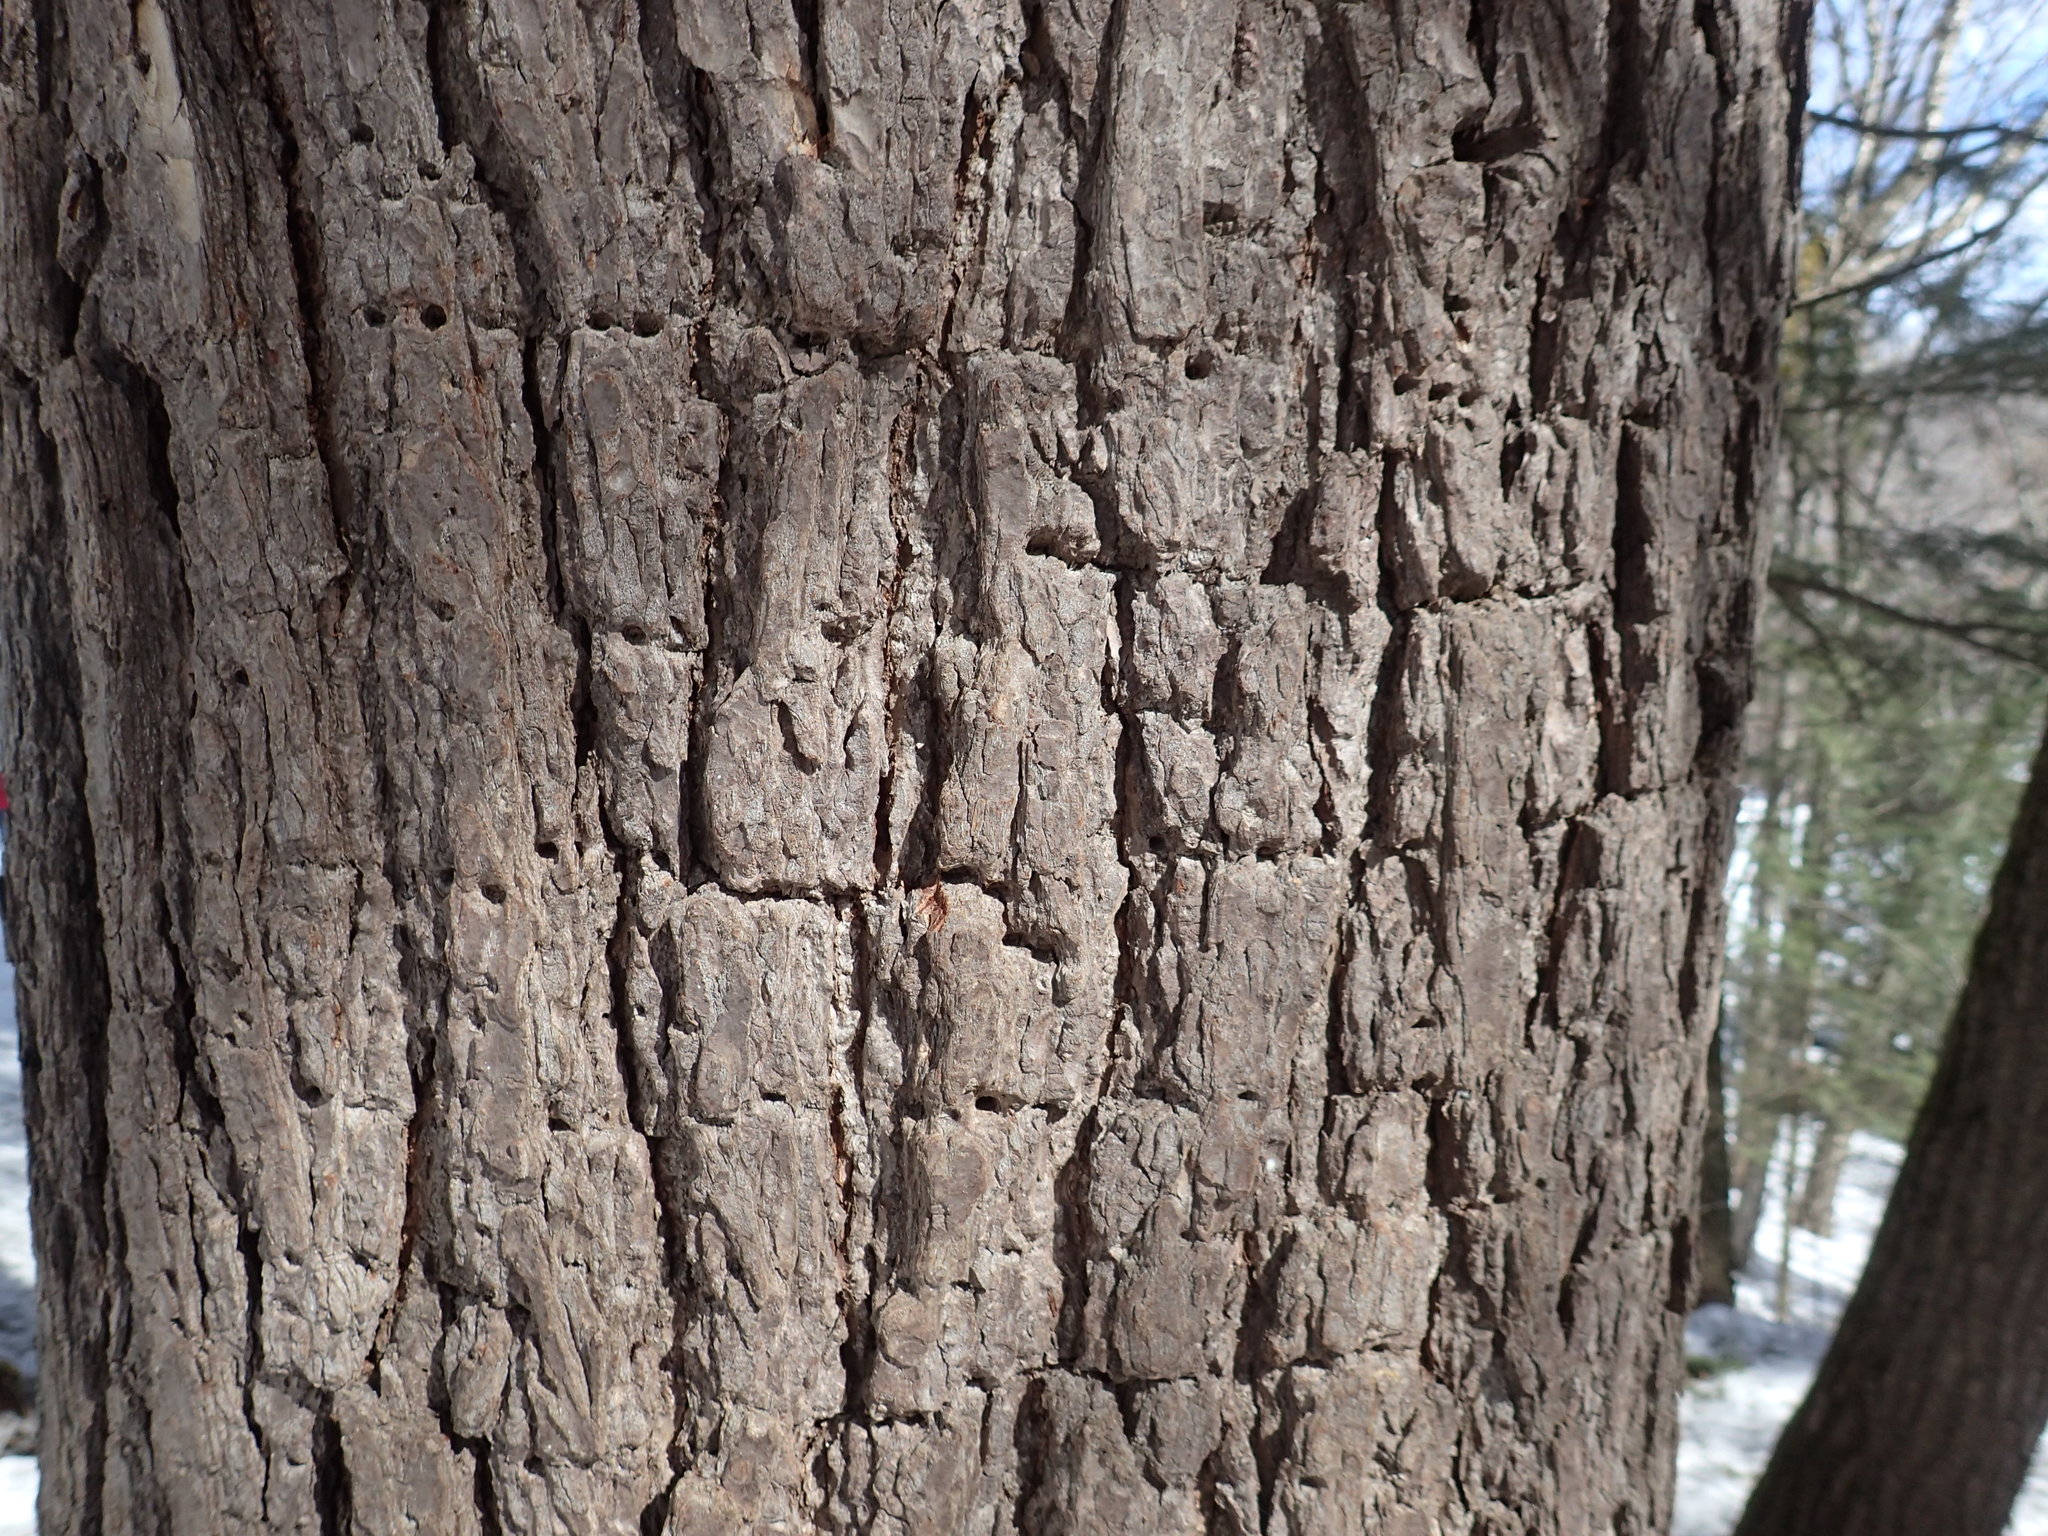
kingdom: Animalia
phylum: Chordata
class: Aves
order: Piciformes
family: Picidae
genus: Sphyrapicus
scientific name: Sphyrapicus varius
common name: Yellow-bellied sapsucker
